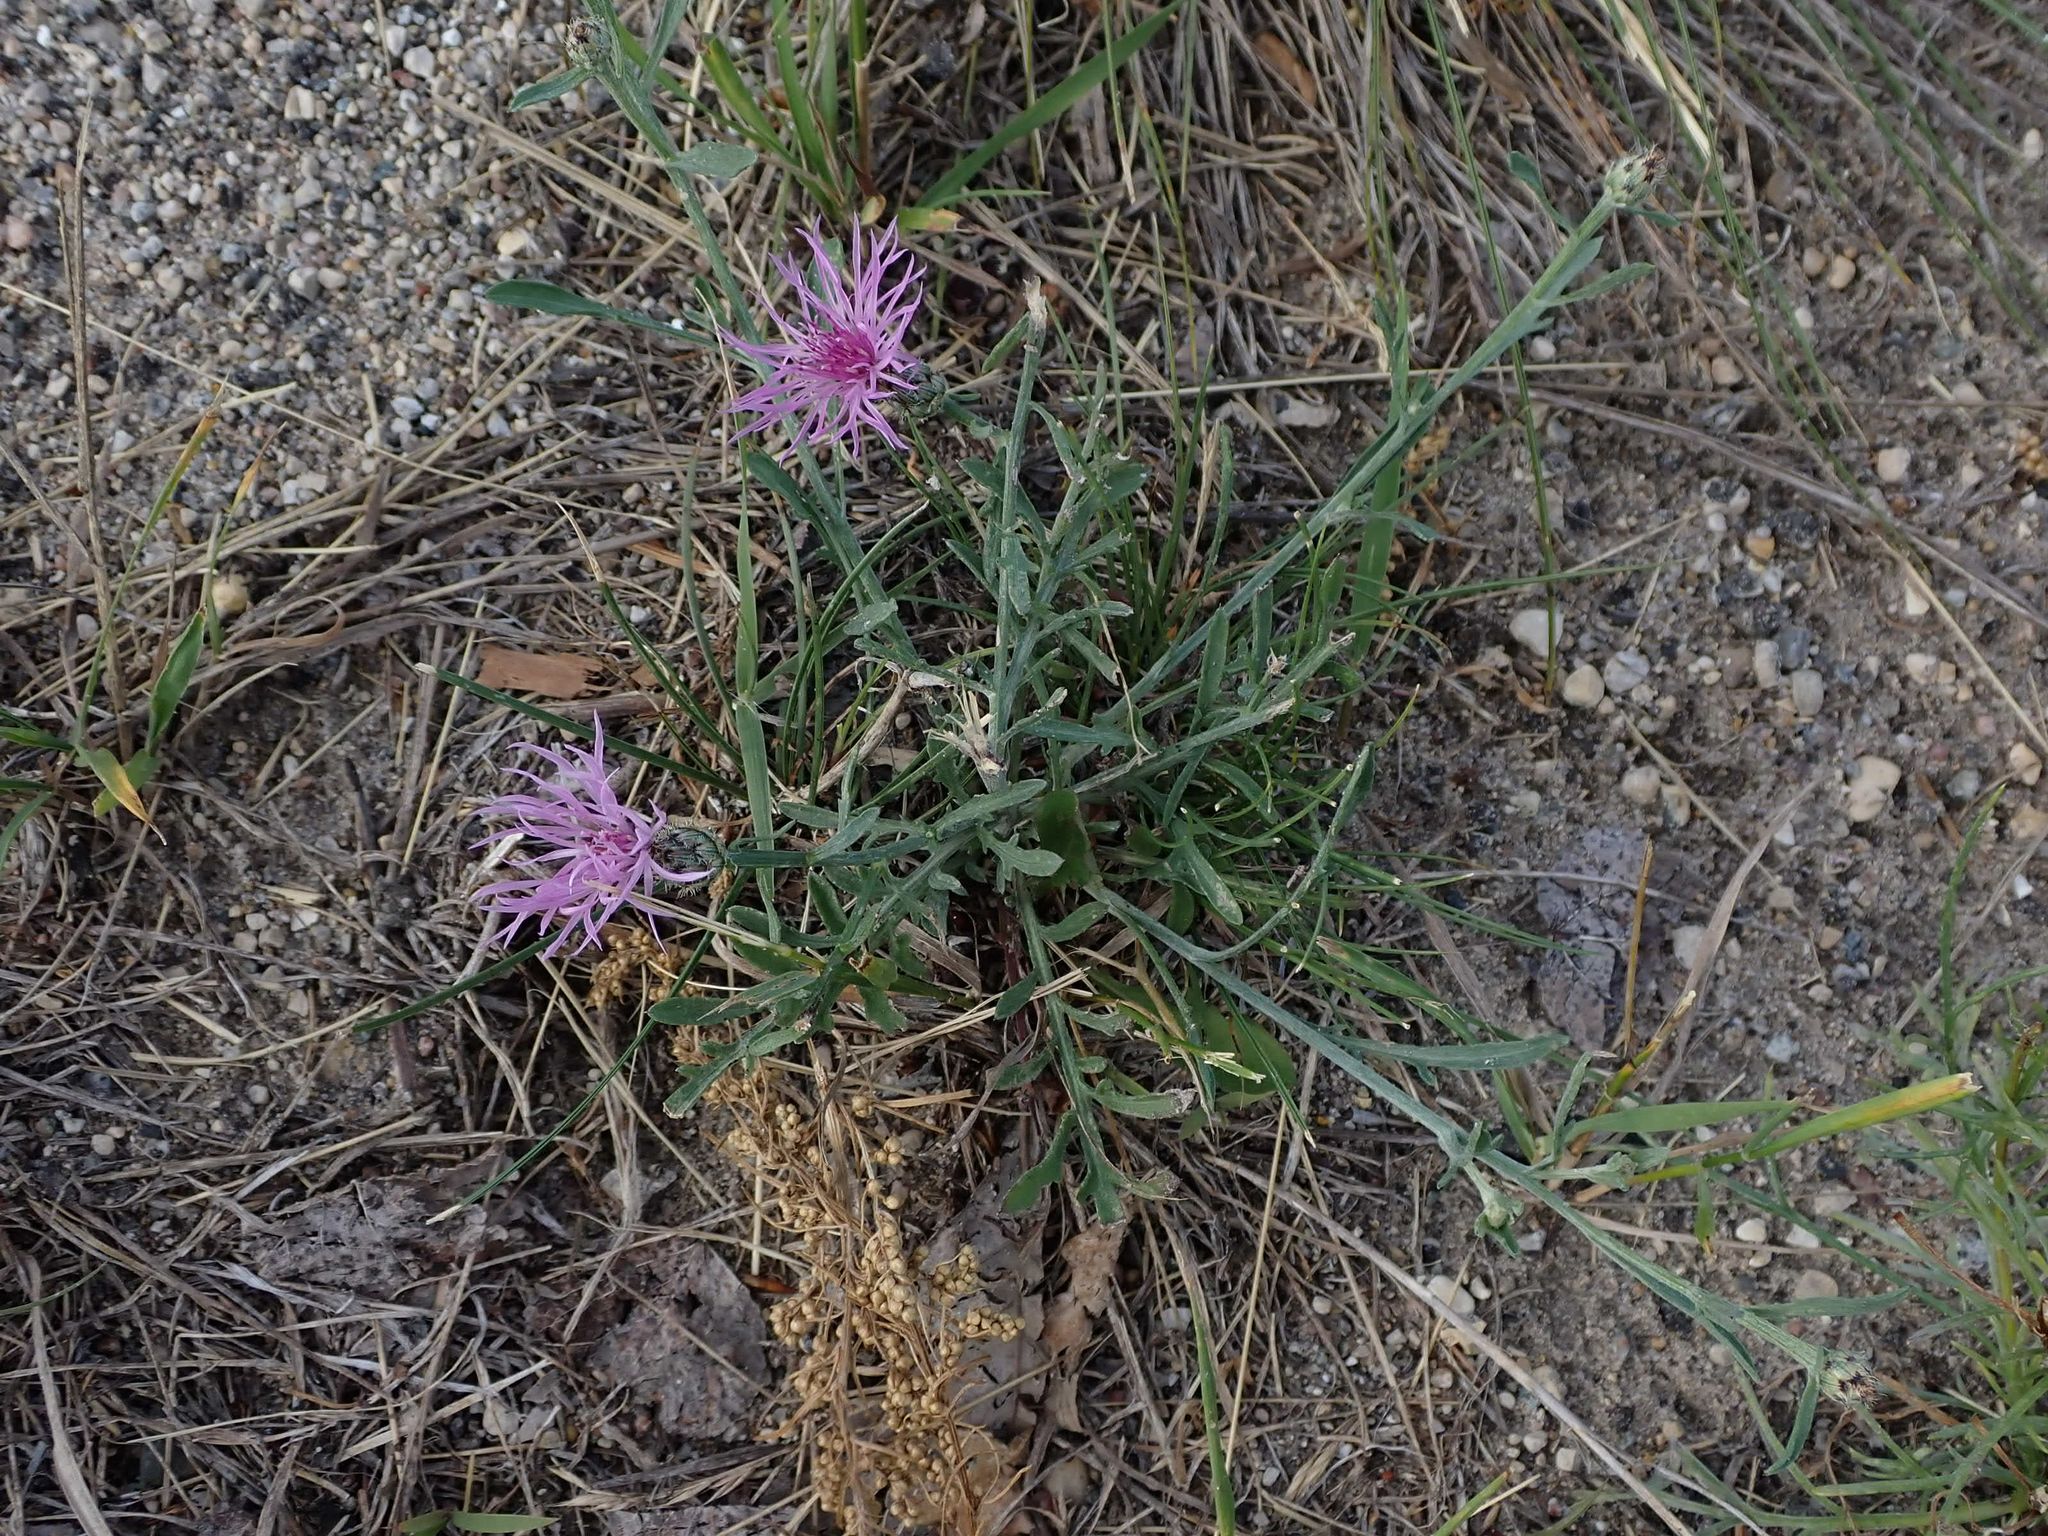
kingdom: Plantae
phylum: Tracheophyta
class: Magnoliopsida
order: Asterales
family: Asteraceae
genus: Centaurea
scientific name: Centaurea stoebe
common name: Spotted knapweed
